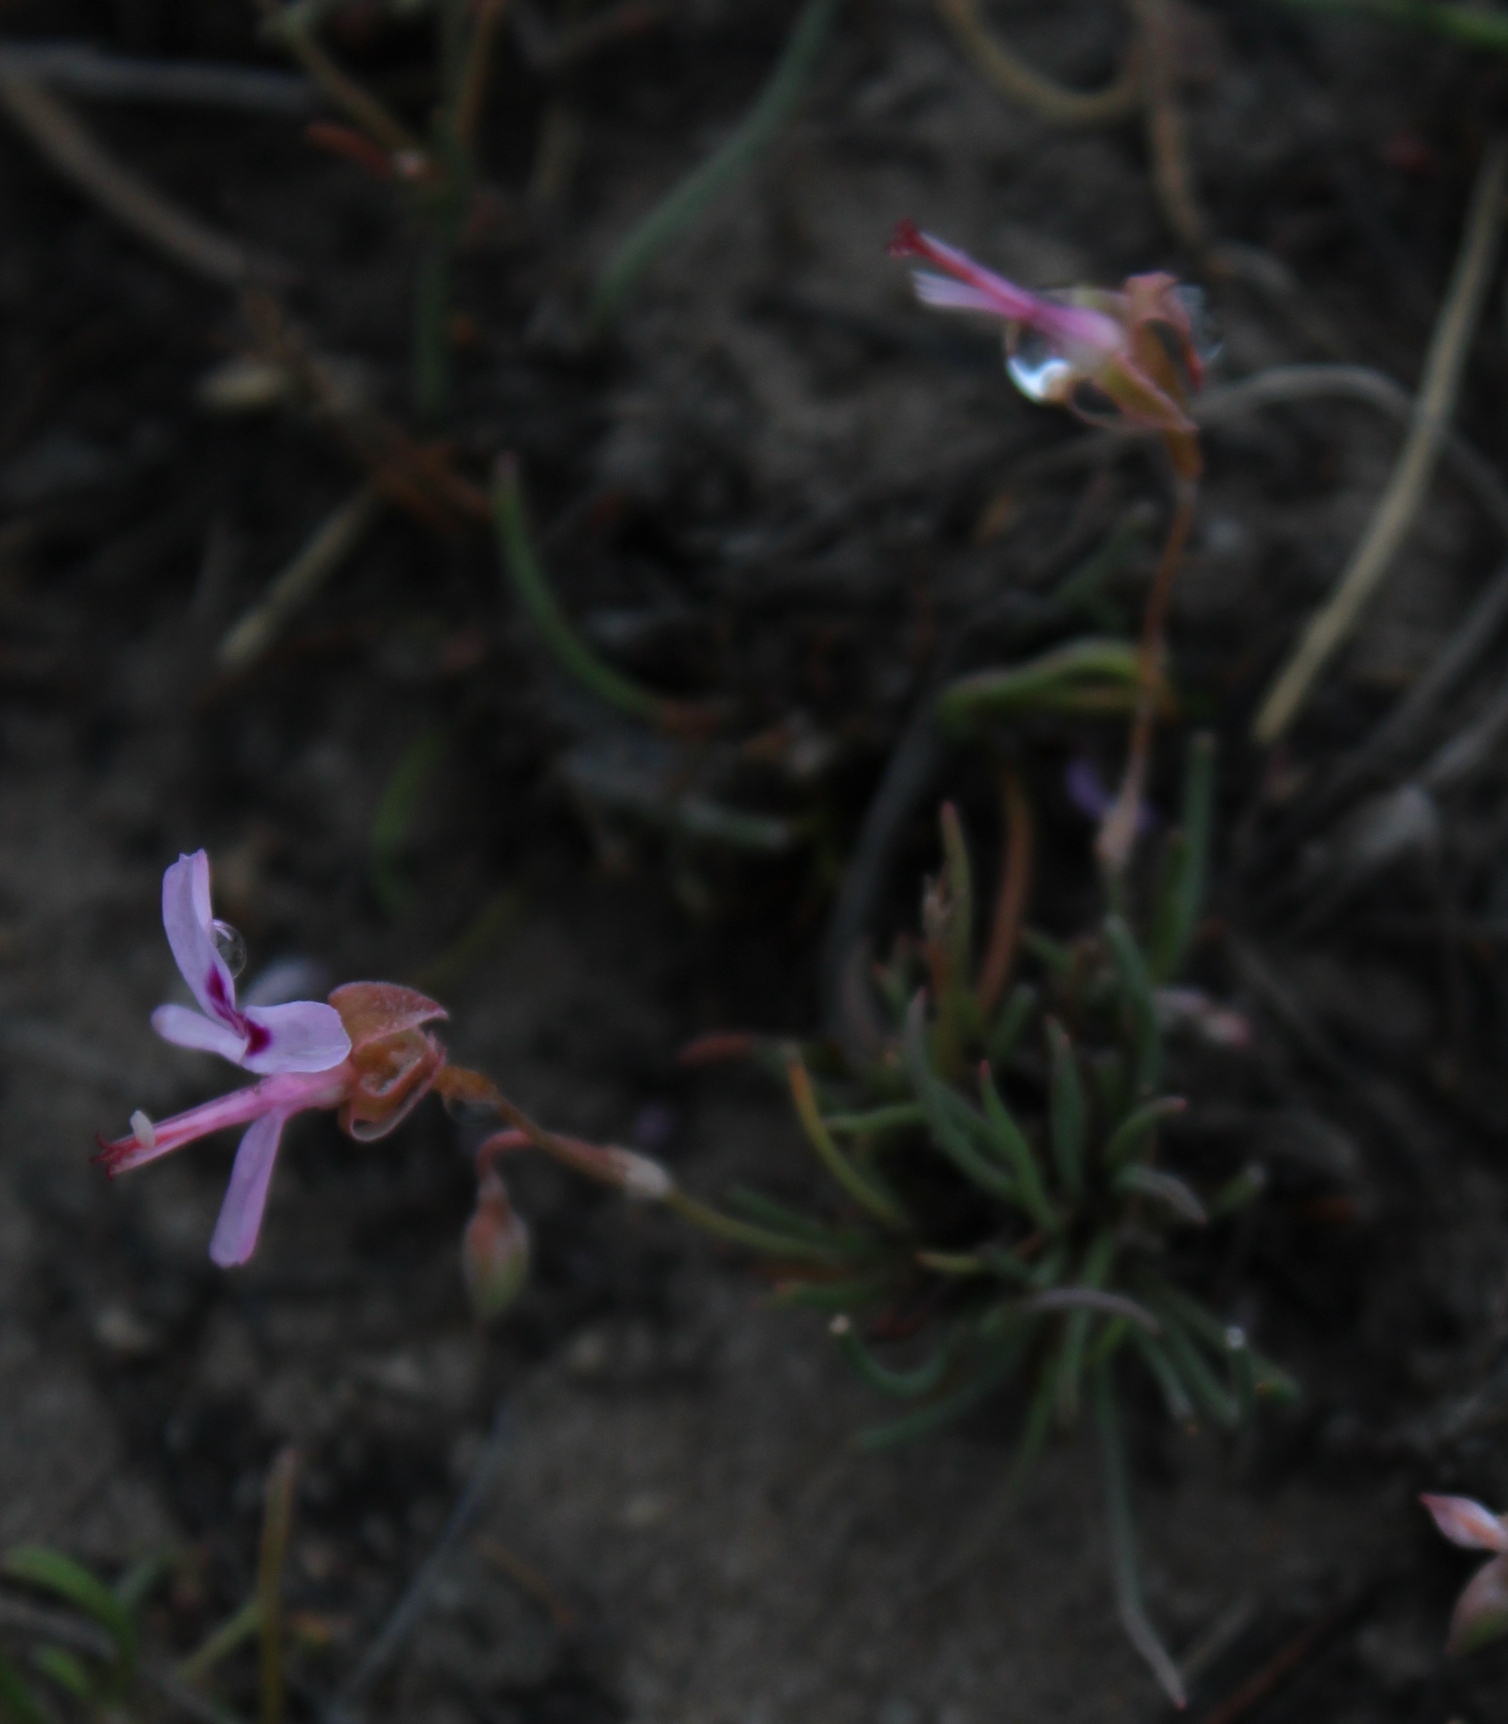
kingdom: Plantae
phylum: Tracheophyta
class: Magnoliopsida
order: Geraniales
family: Geraniaceae
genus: Pelargonium
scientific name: Pelargonium coronopifolium
